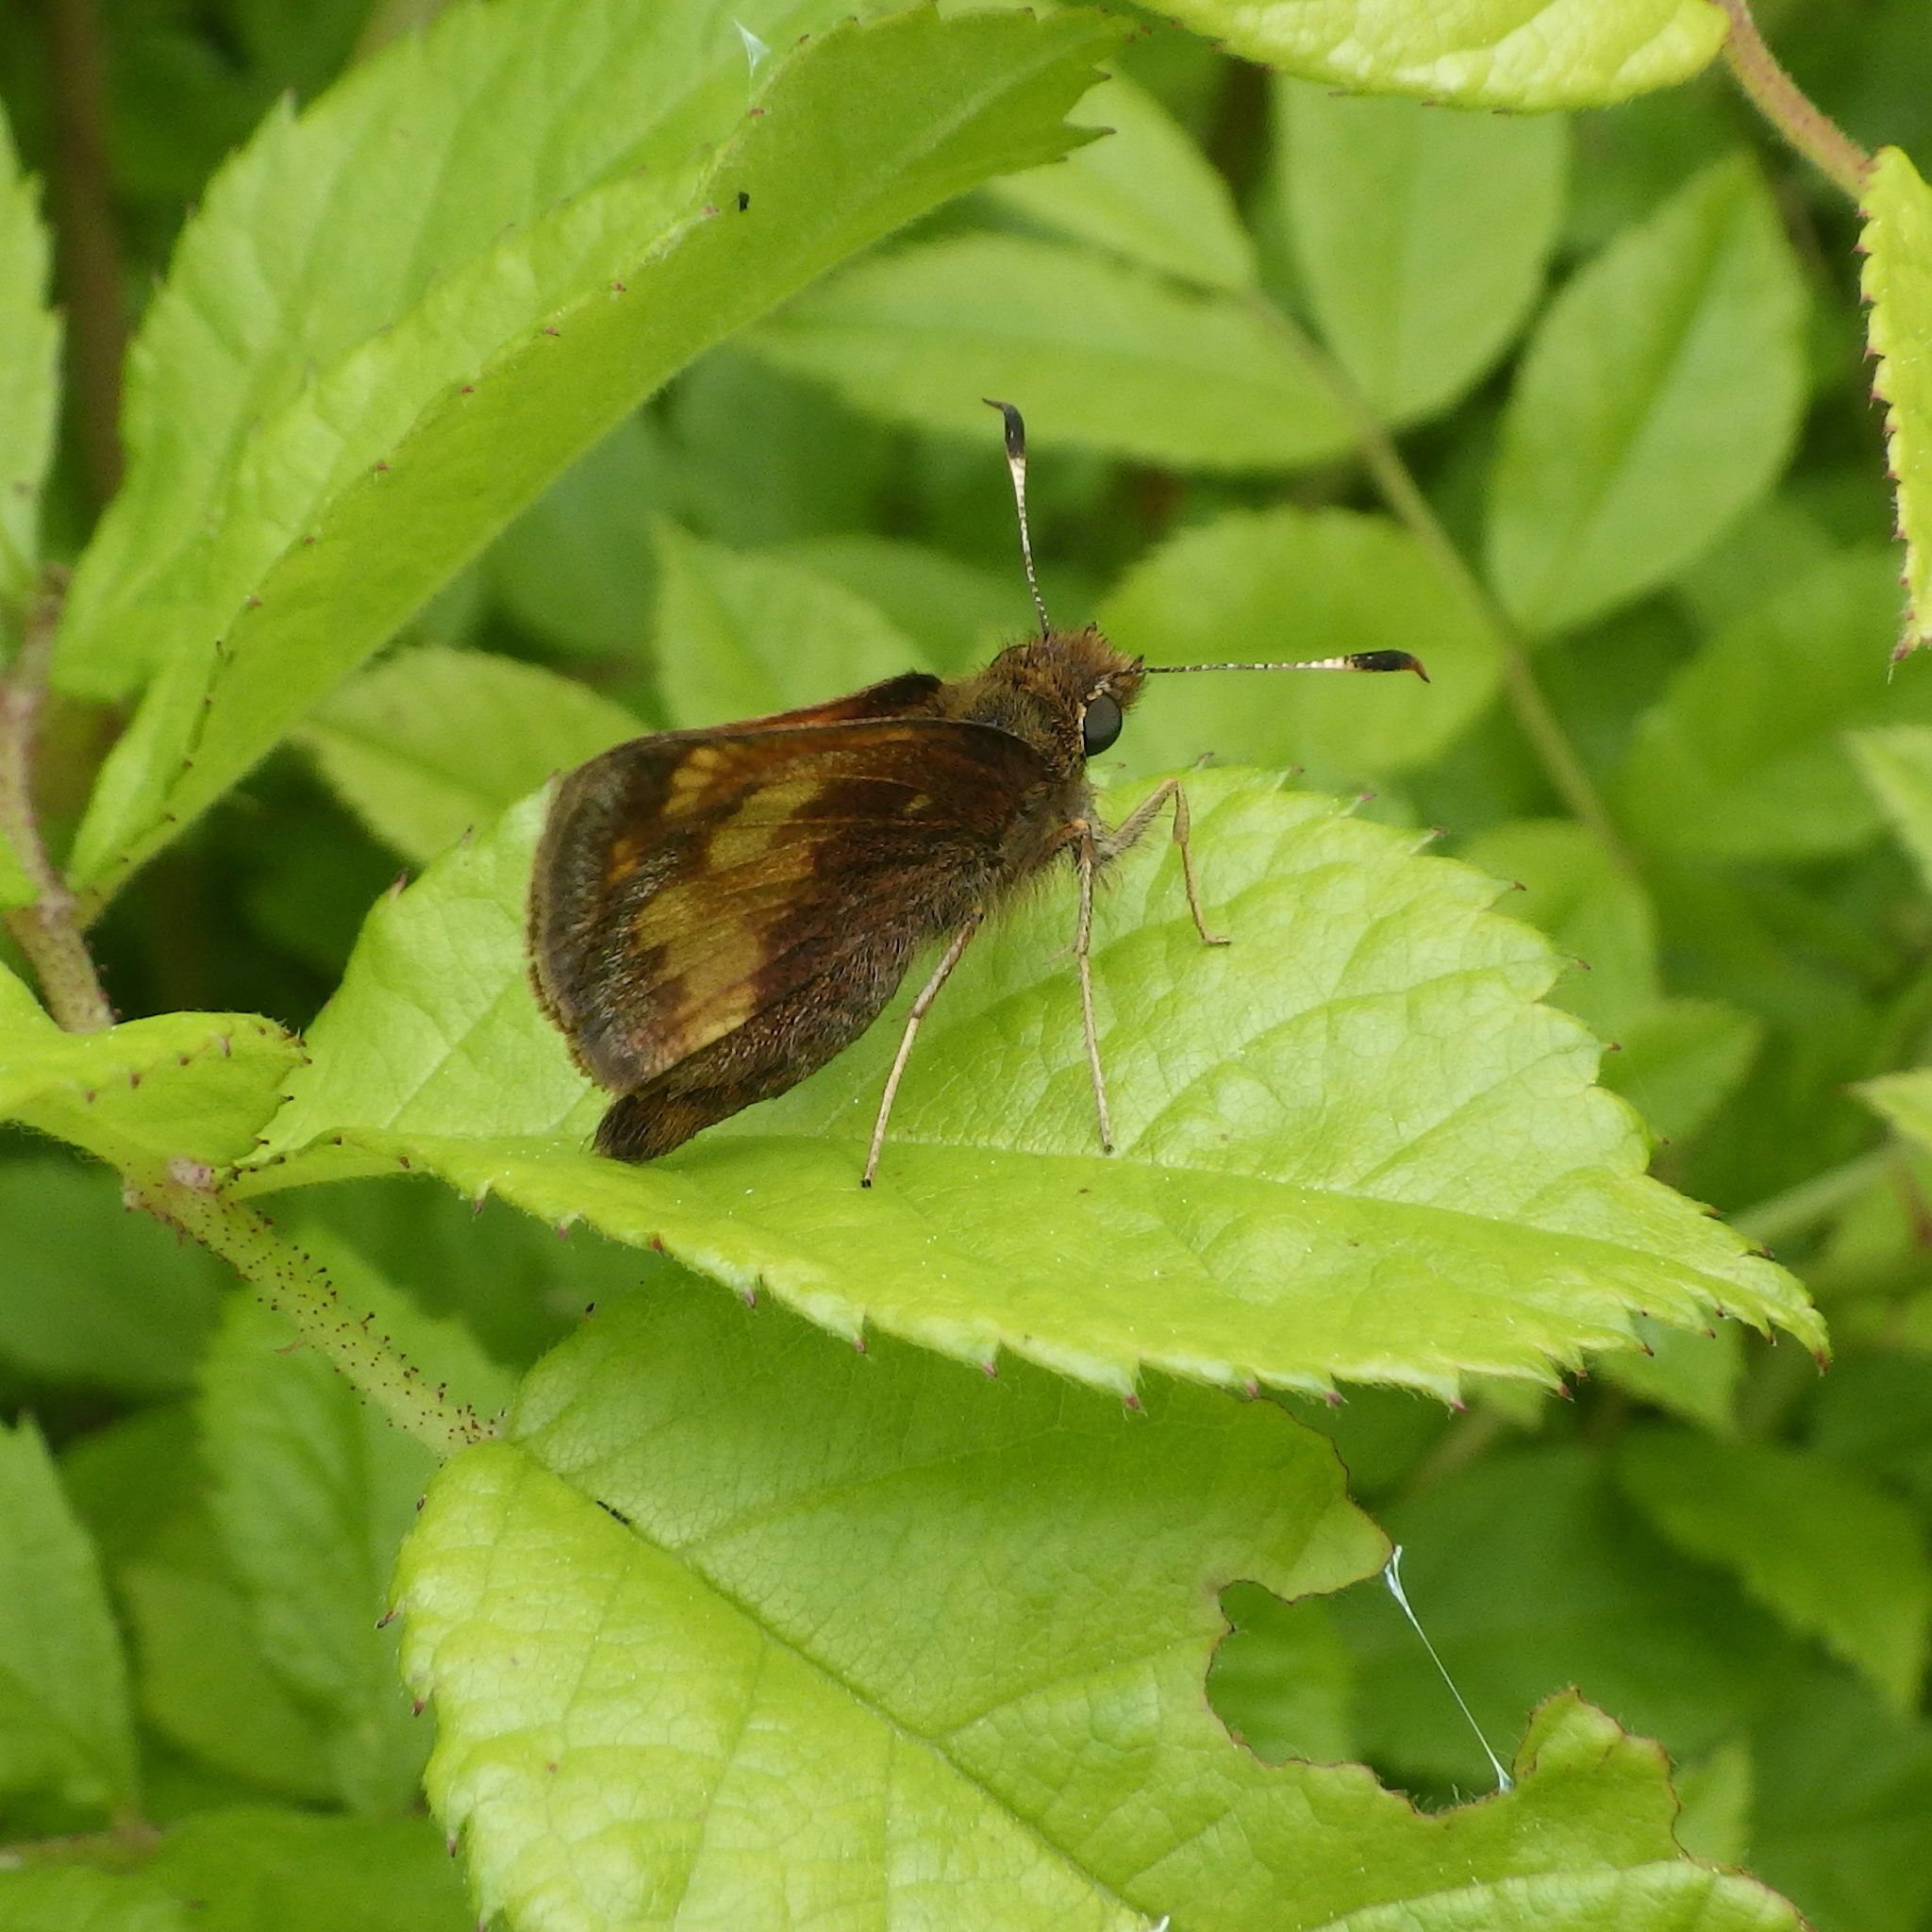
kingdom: Animalia
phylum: Arthropoda
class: Insecta
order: Lepidoptera
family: Hesperiidae
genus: Lon
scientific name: Lon hobomok
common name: Hobomok skipper
